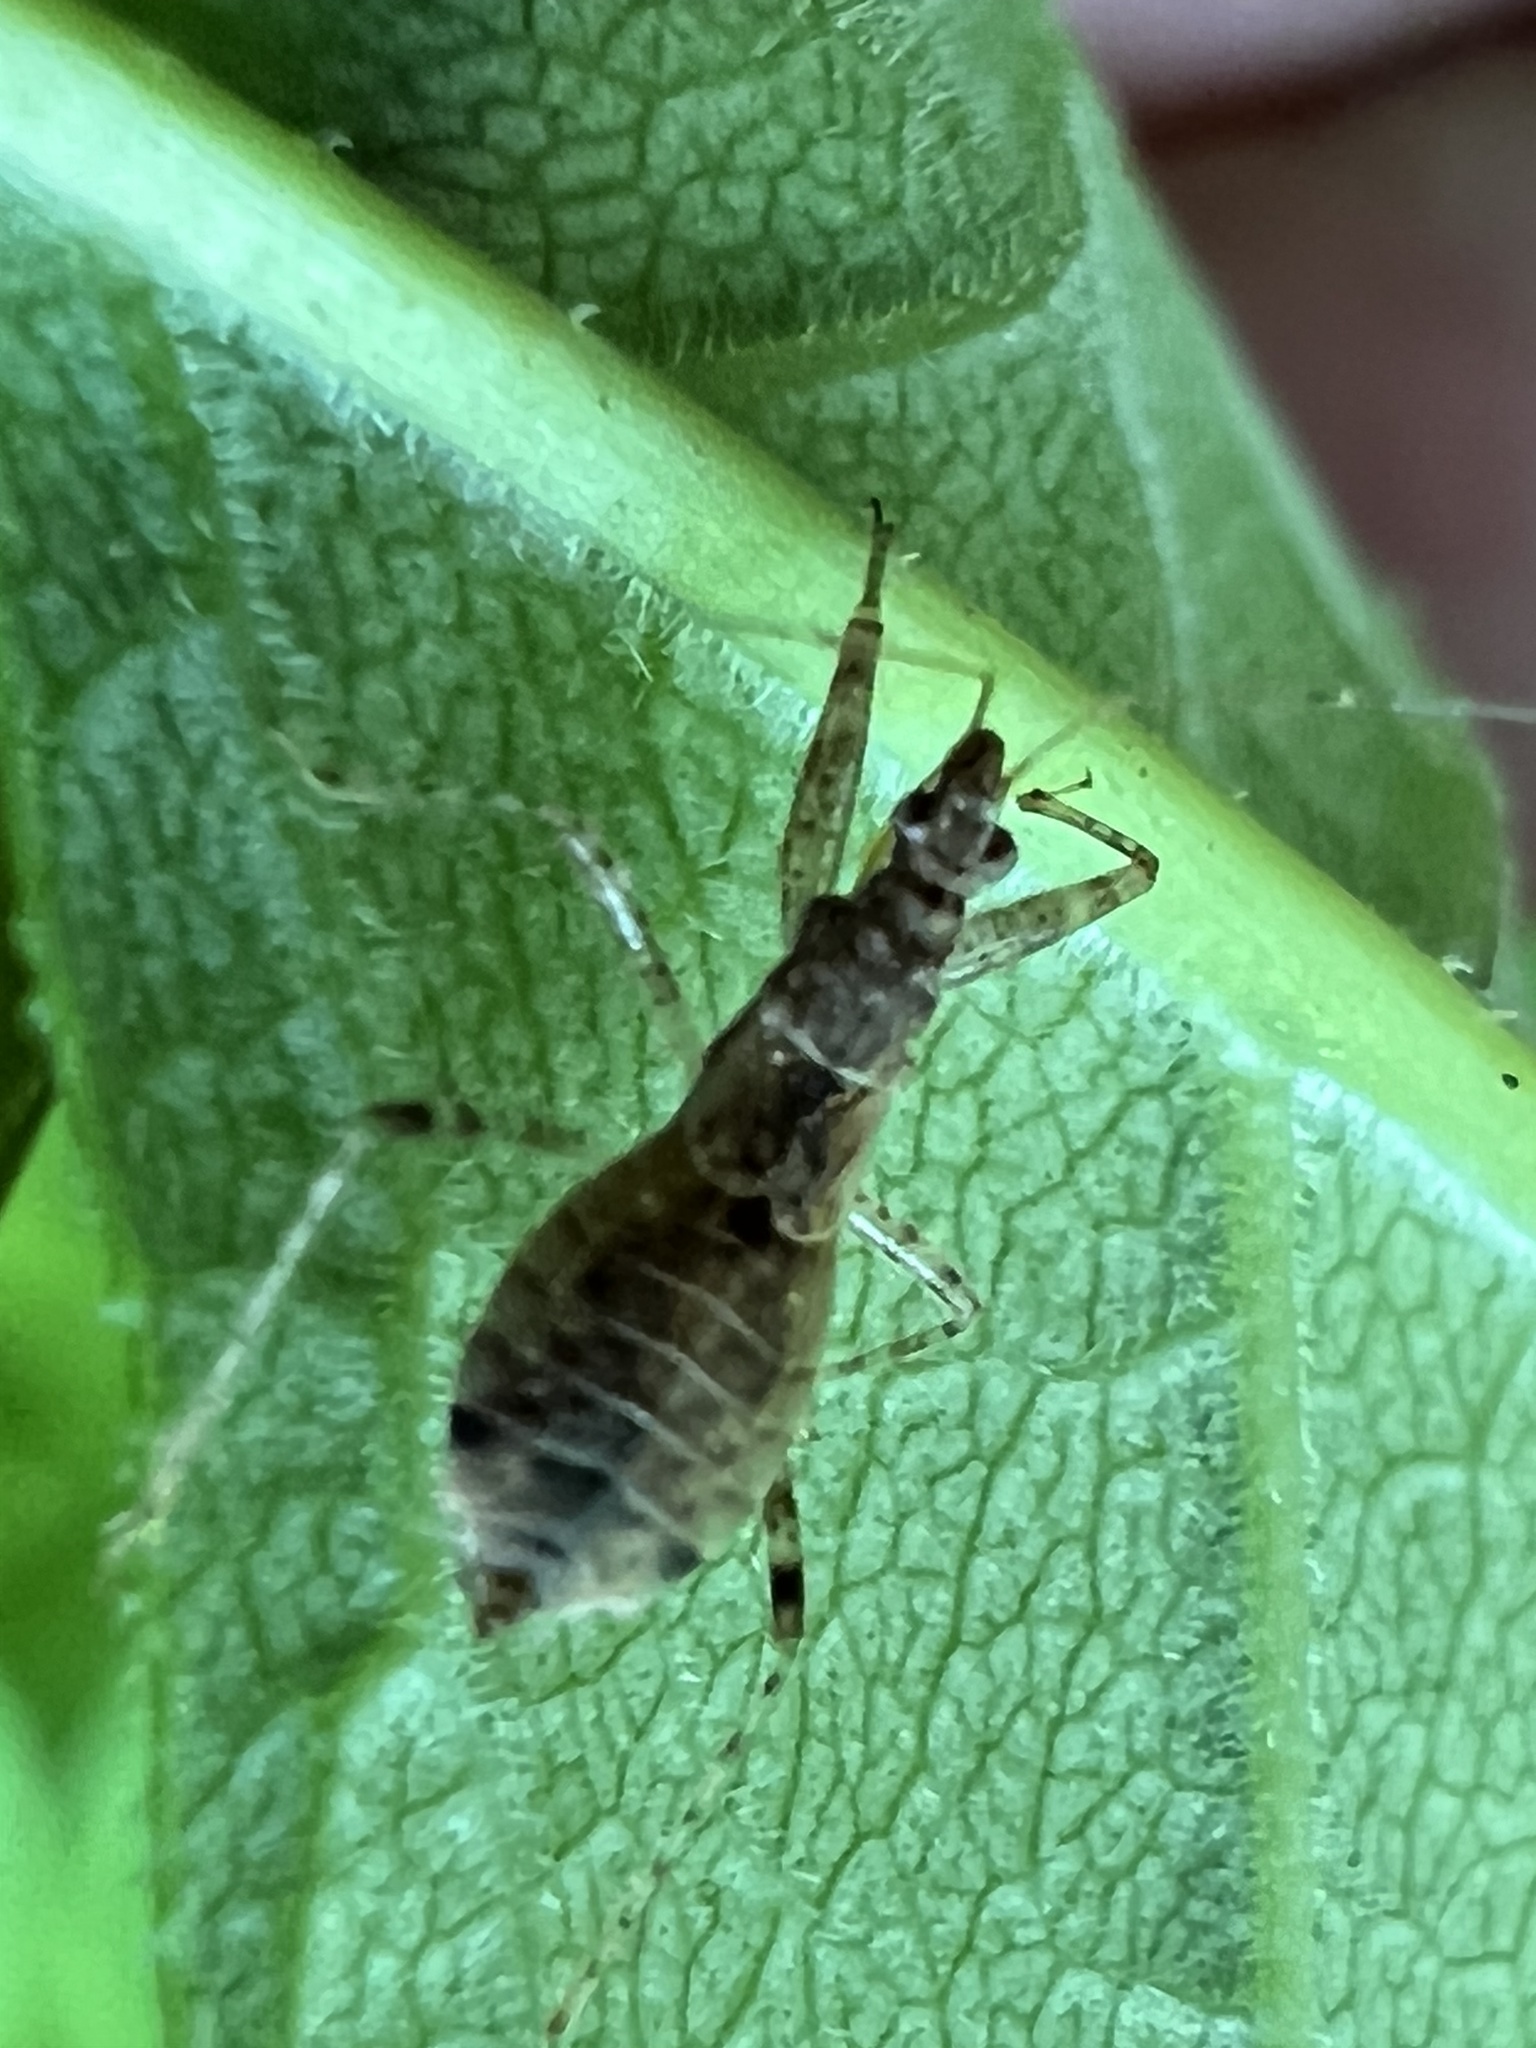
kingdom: Animalia
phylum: Arthropoda
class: Insecta
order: Hemiptera
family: Nabidae
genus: Hoplistoscelis
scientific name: Hoplistoscelis pallescens
